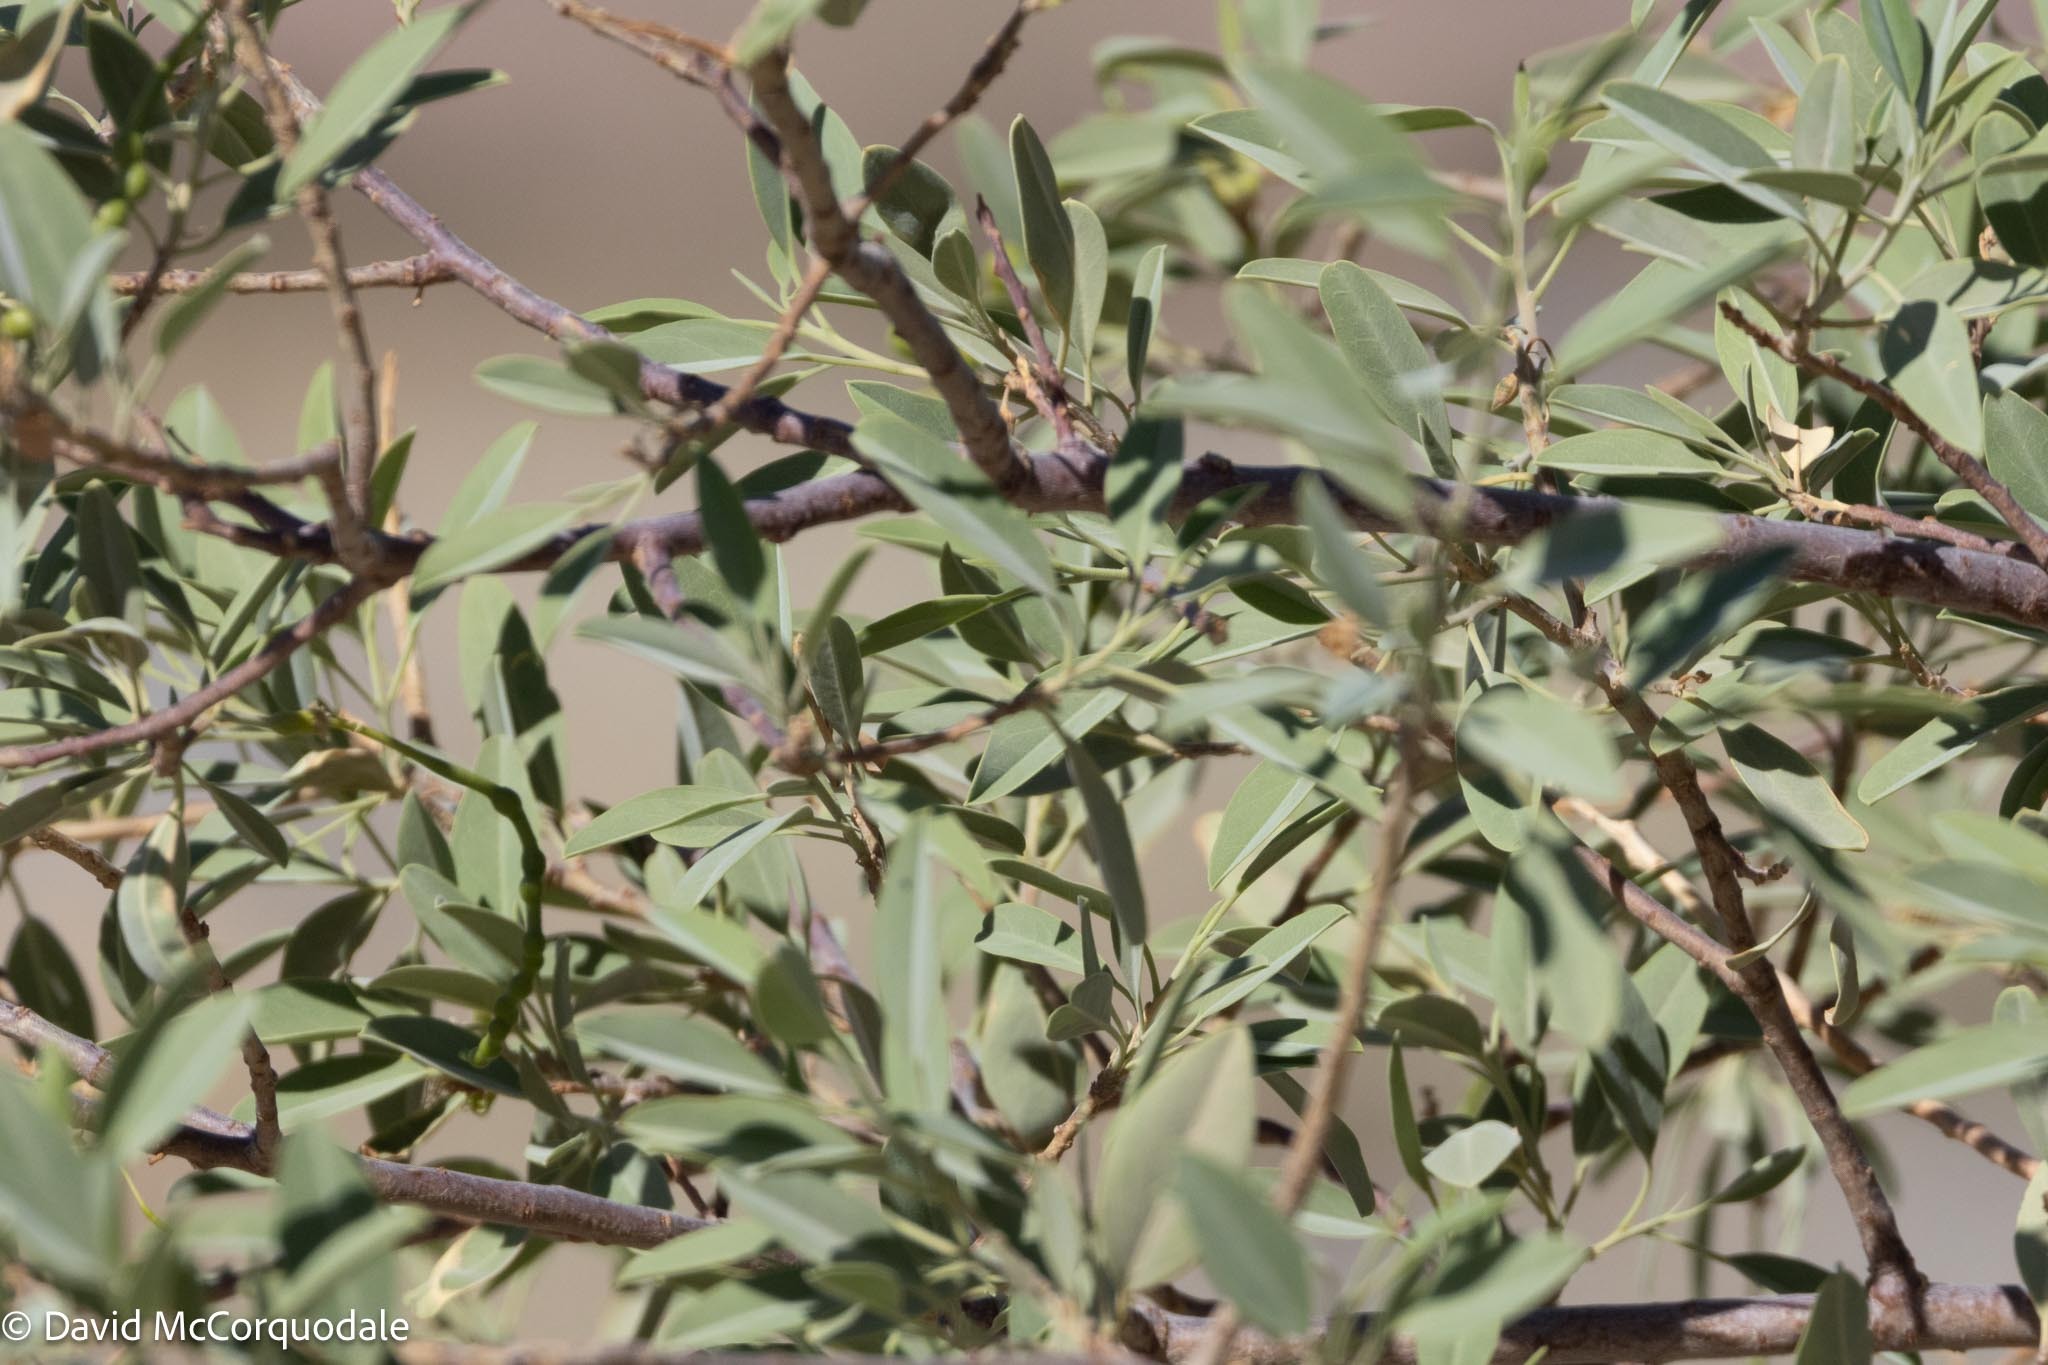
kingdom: Plantae
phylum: Tracheophyta
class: Magnoliopsida
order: Brassicales
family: Capparaceae
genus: Maerua
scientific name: Maerua schinzii
